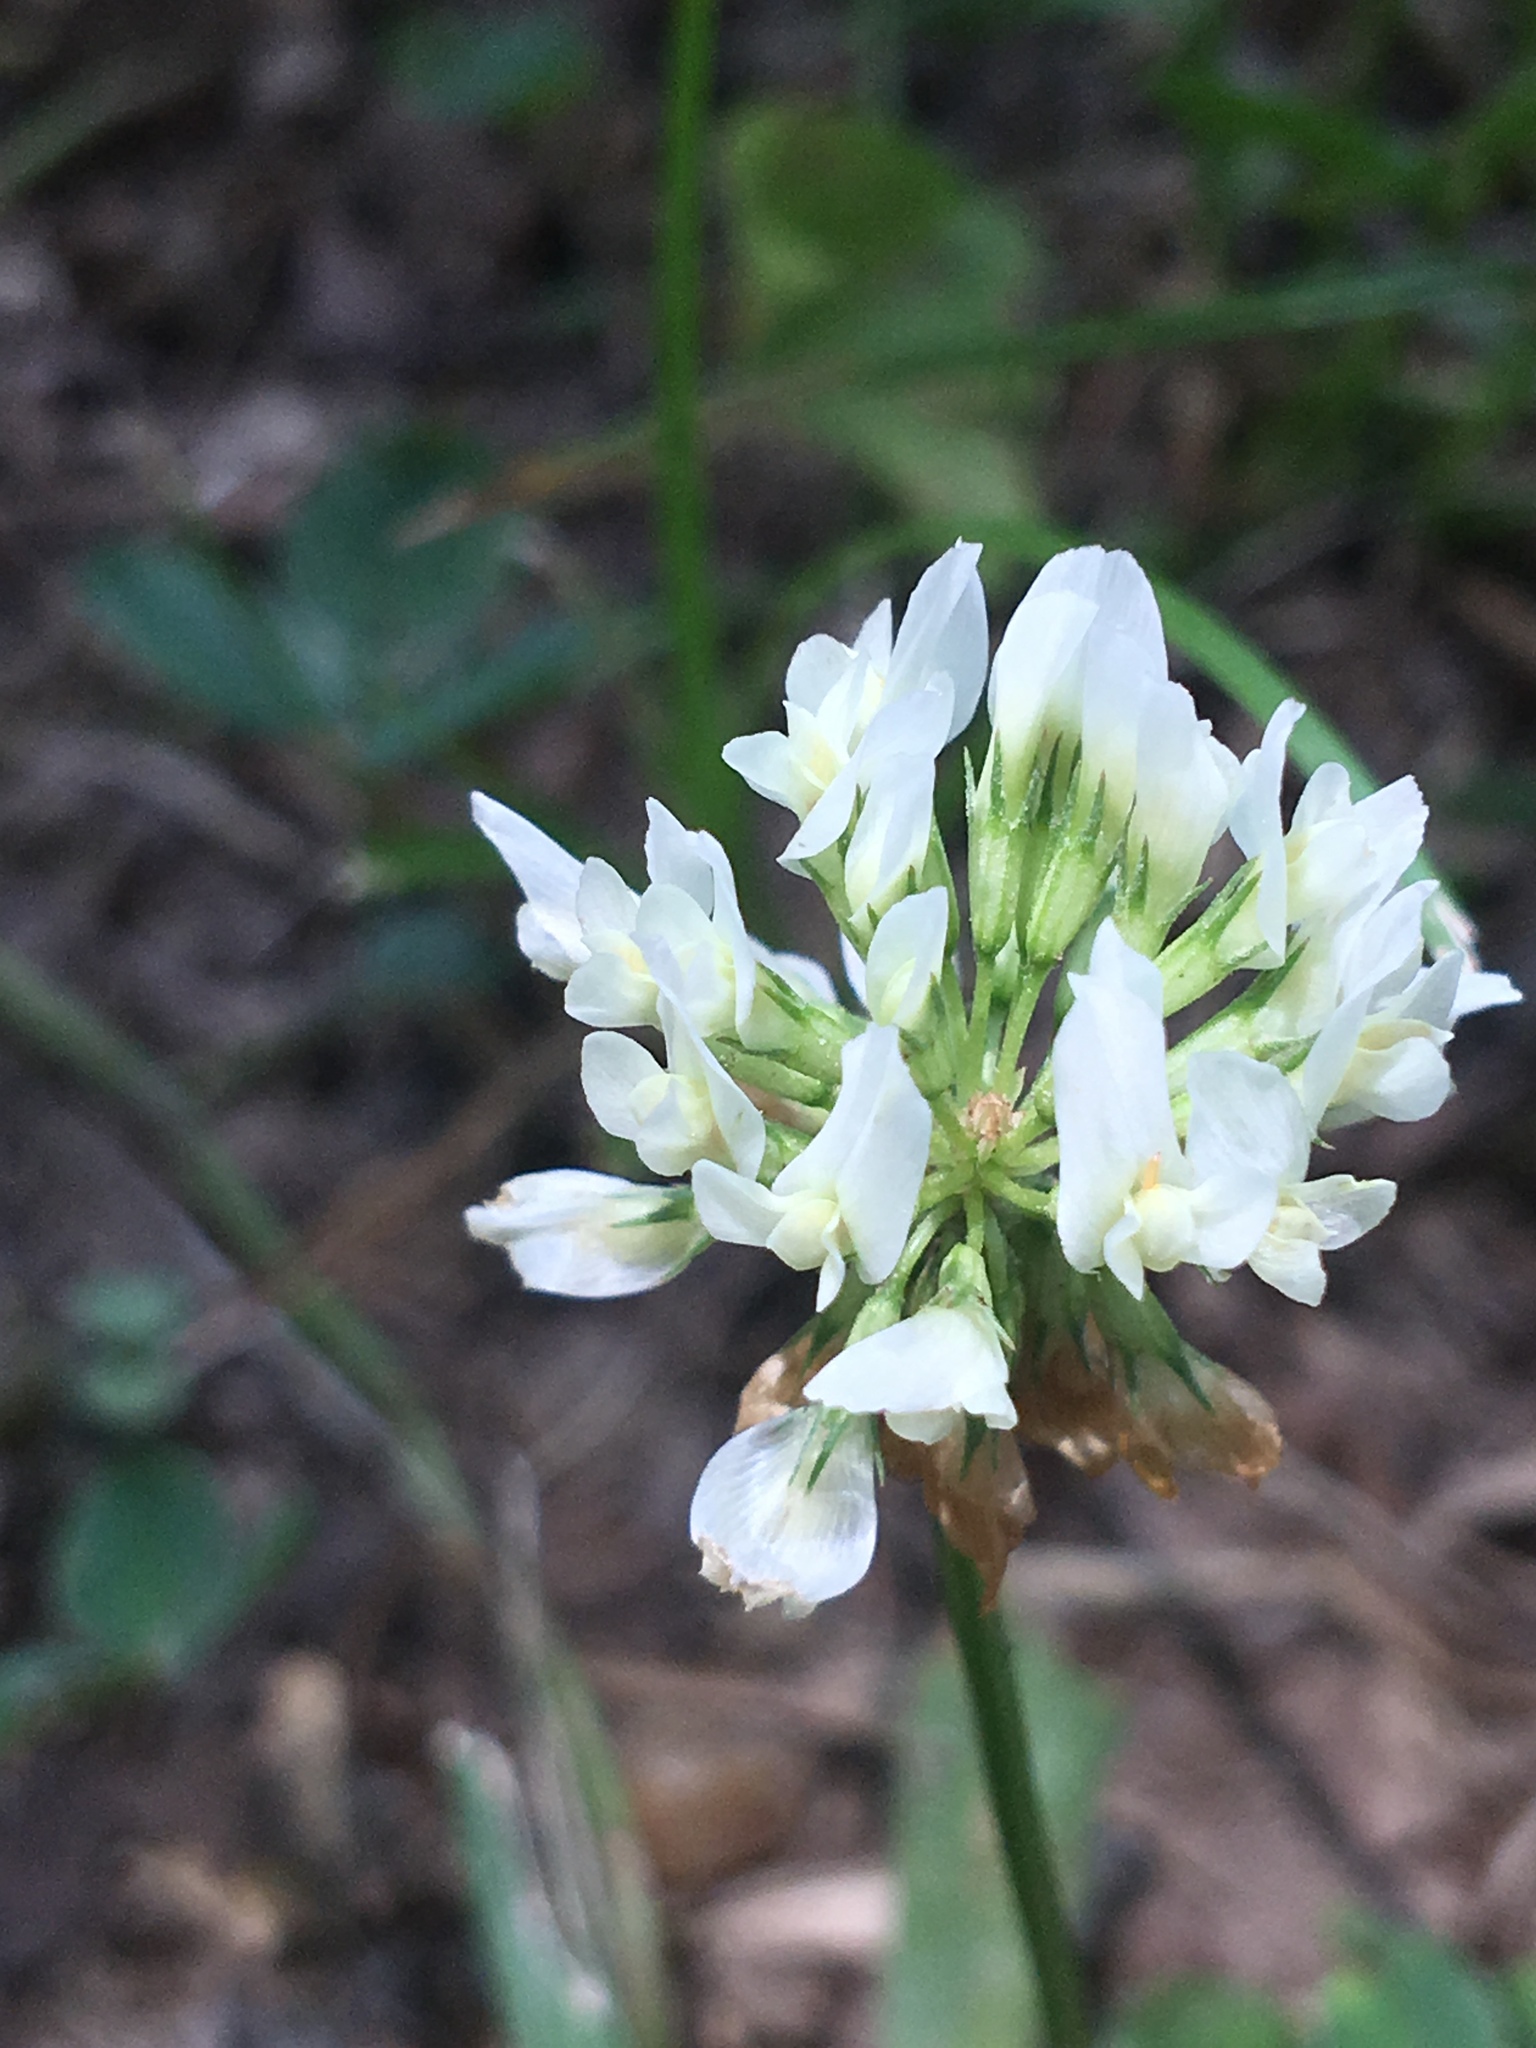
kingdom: Plantae
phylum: Tracheophyta
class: Magnoliopsida
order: Fabales
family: Fabaceae
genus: Trifolium
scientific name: Trifolium repens
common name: White clover
